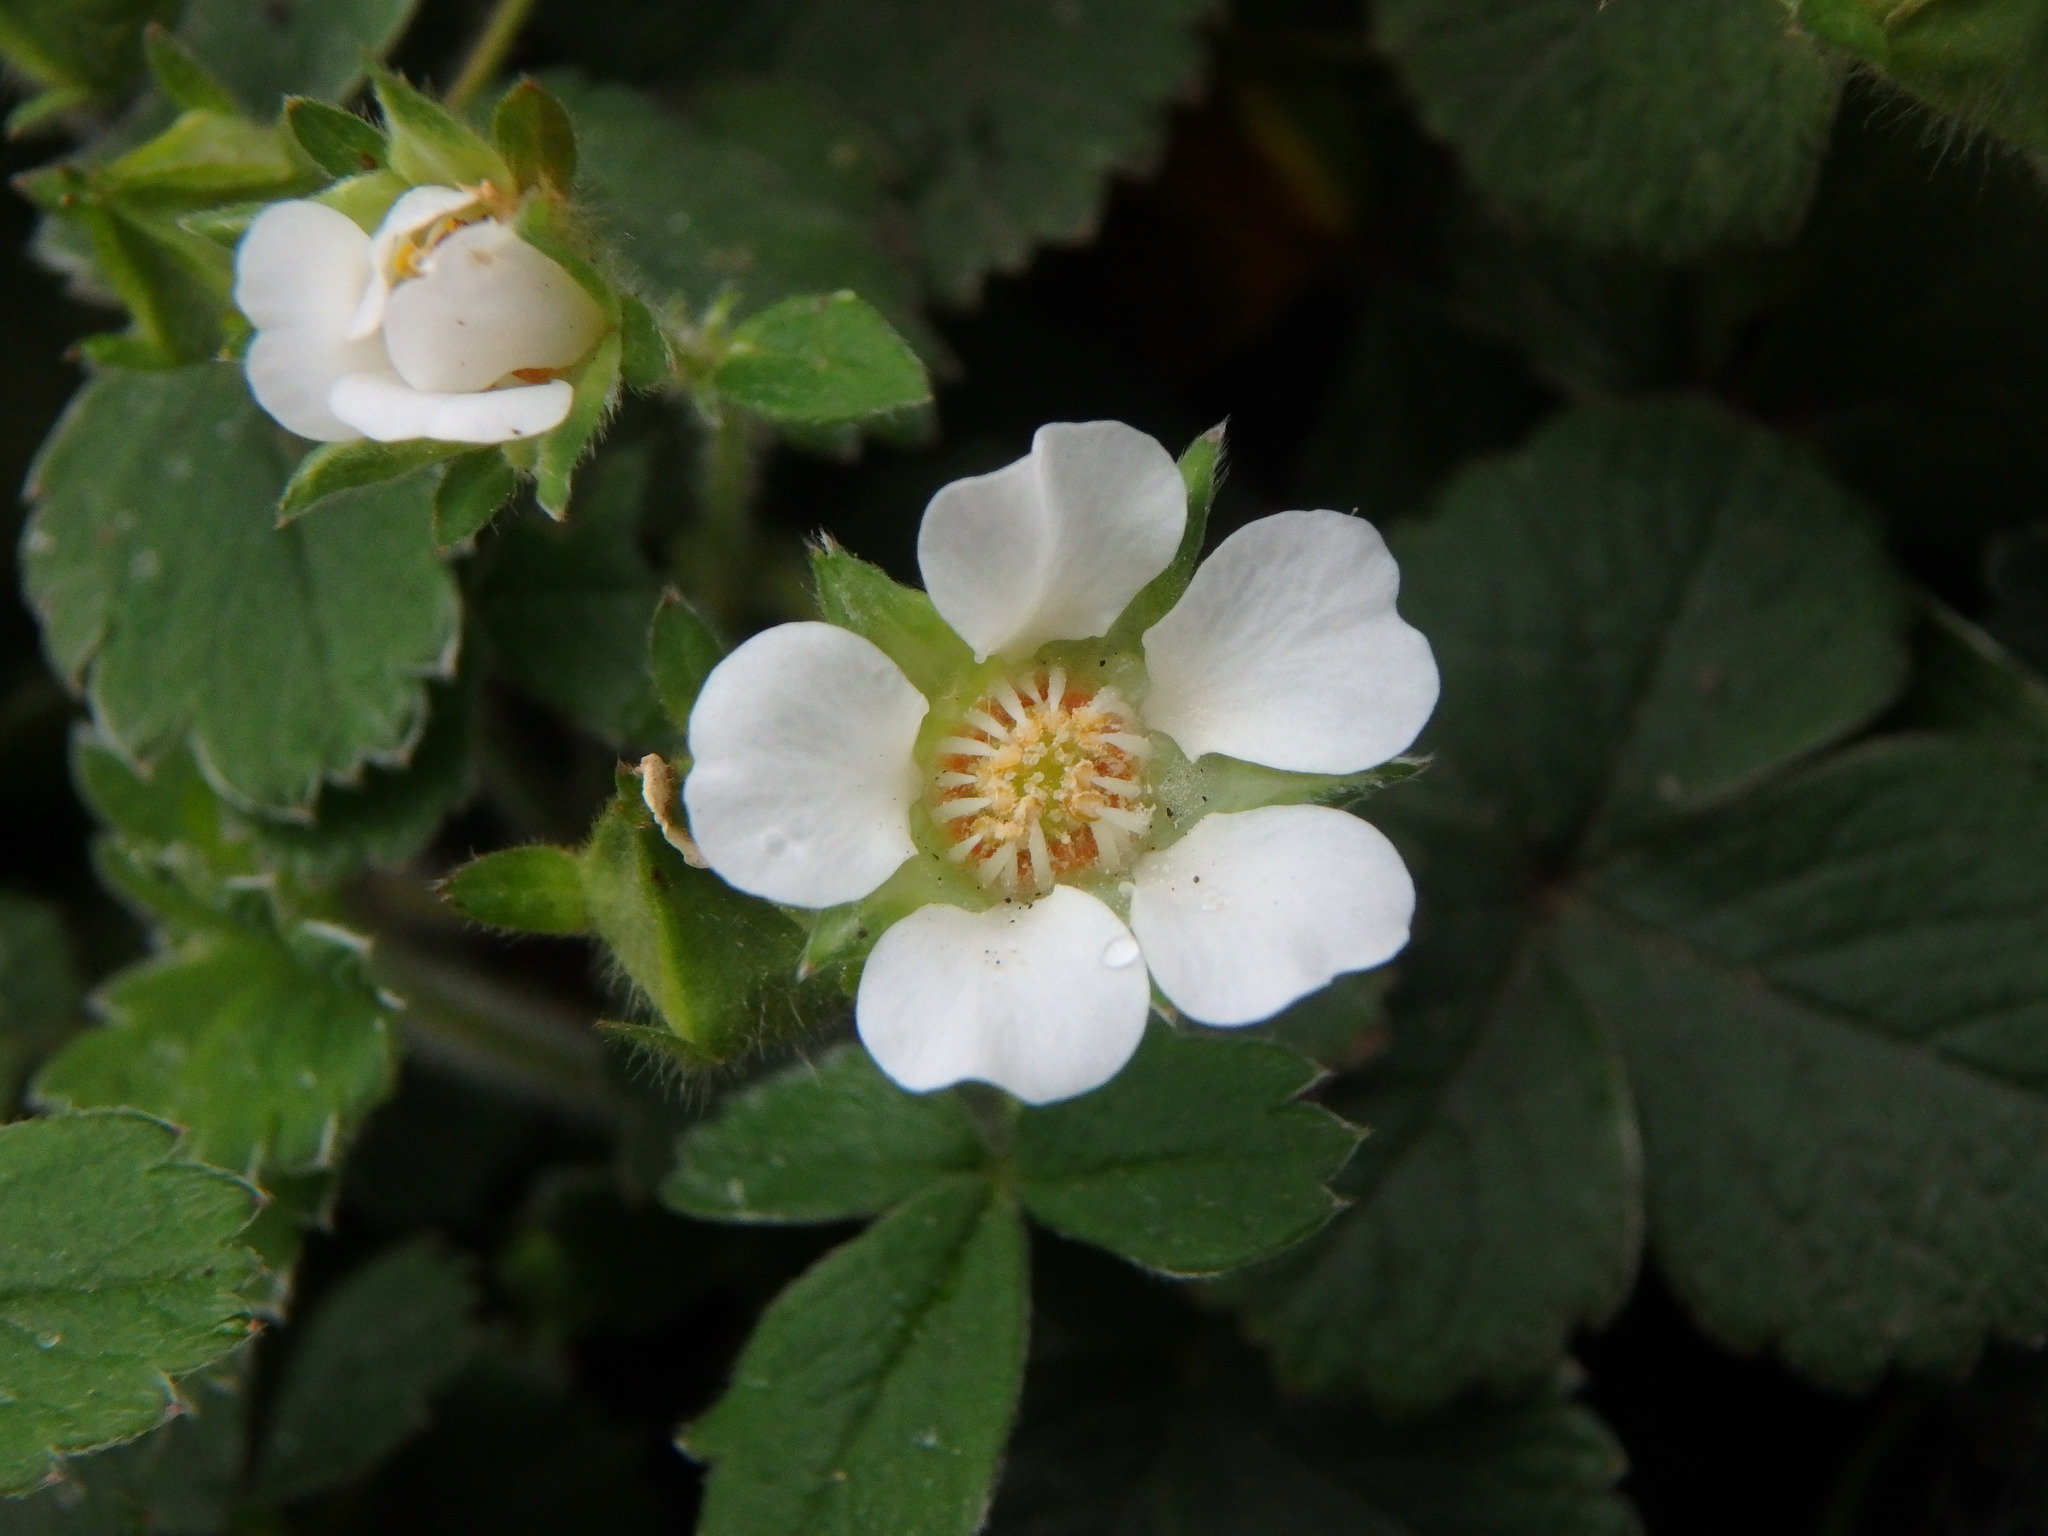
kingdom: Plantae
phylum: Tracheophyta
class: Magnoliopsida
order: Rosales
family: Rosaceae
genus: Potentilla
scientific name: Potentilla sterilis
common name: Barren strawberry
